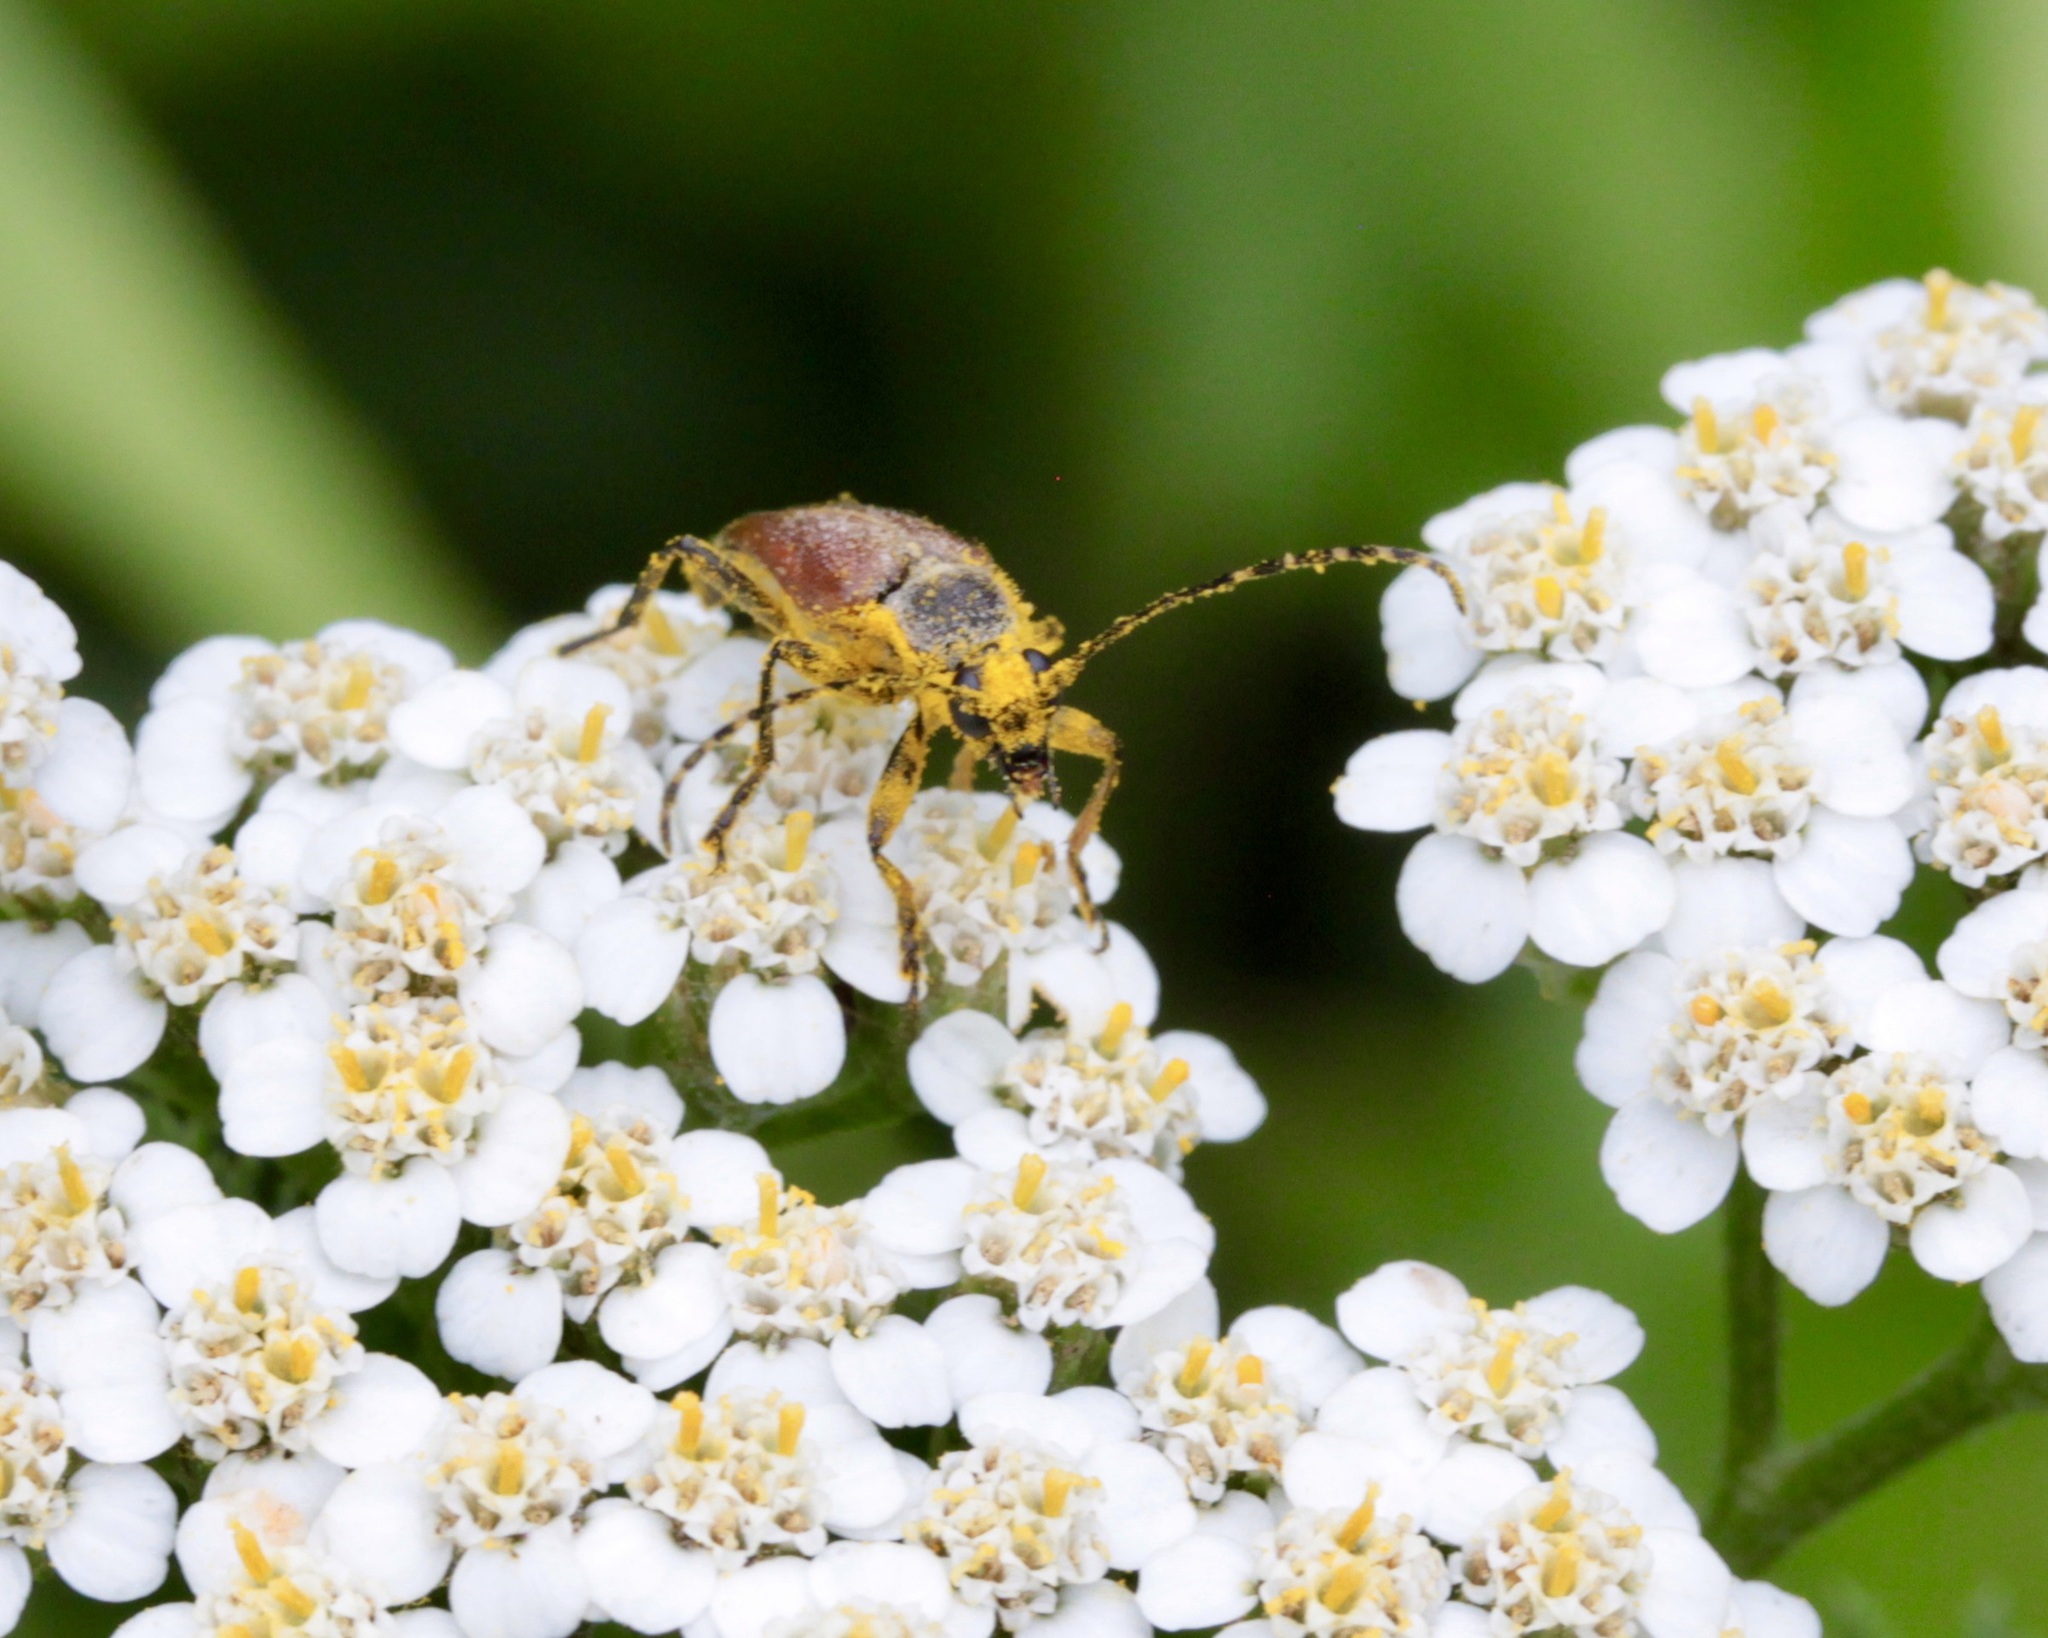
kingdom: Animalia
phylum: Arthropoda
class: Insecta
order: Coleoptera
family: Cerambycidae
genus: Brachyleptura
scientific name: Brachyleptura rubrica
